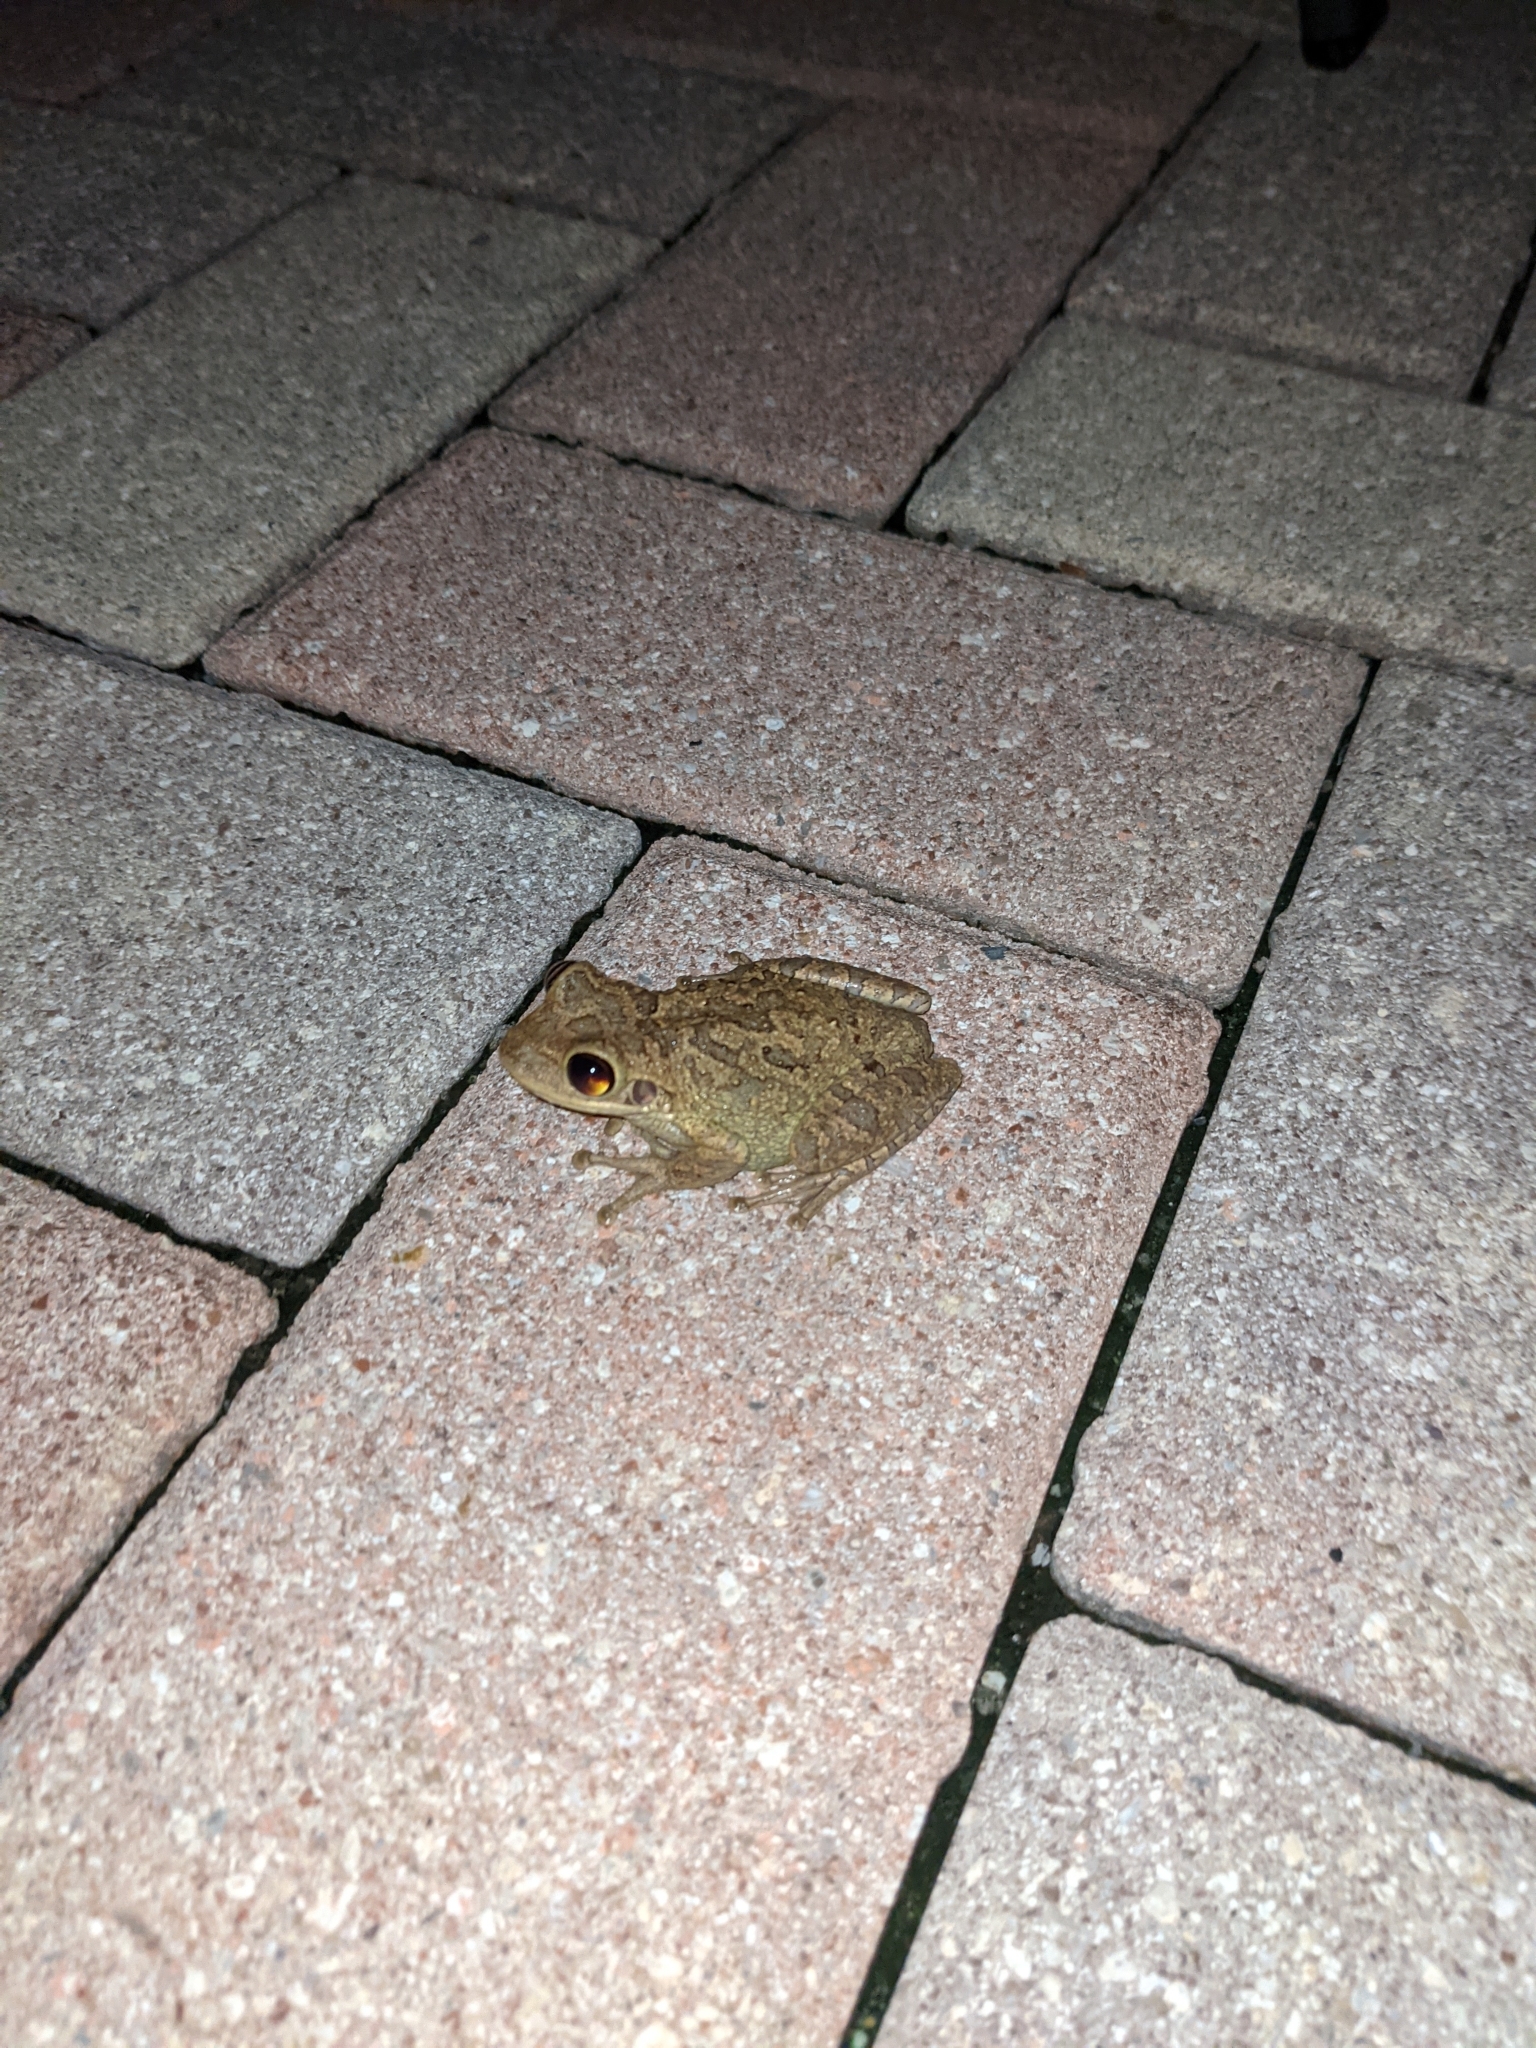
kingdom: Animalia
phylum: Chordata
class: Amphibia
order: Anura
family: Hylidae
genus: Osteopilus
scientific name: Osteopilus septentrionalis
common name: Cuban treefrog
